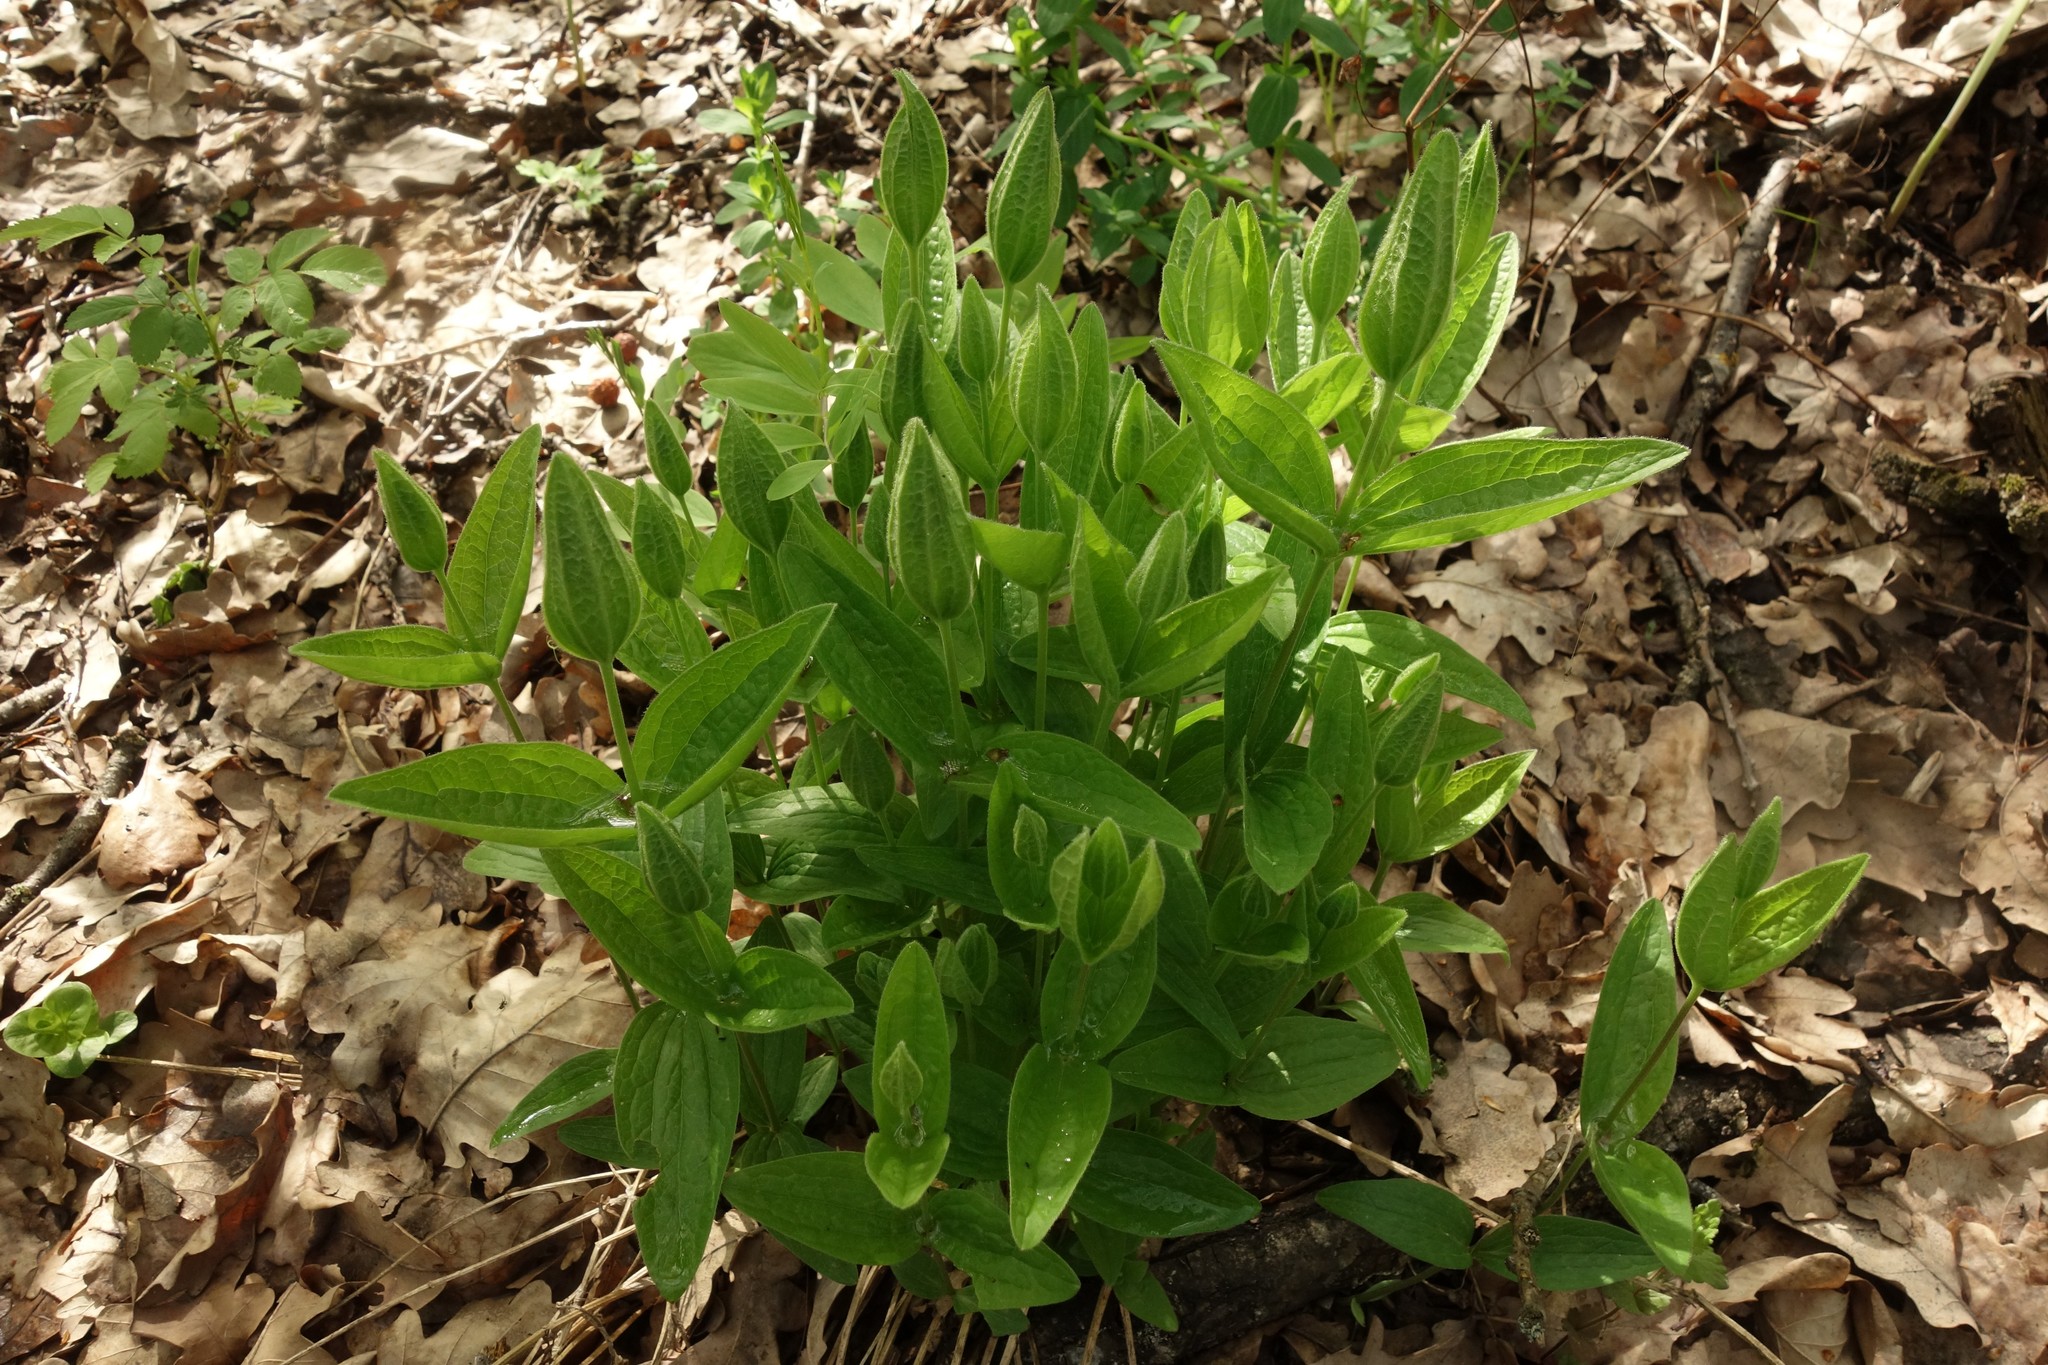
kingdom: Plantae
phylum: Tracheophyta
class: Magnoliopsida
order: Ranunculales
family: Ranunculaceae
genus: Clematis
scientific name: Clematis integrifolia
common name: Solitary clematis
